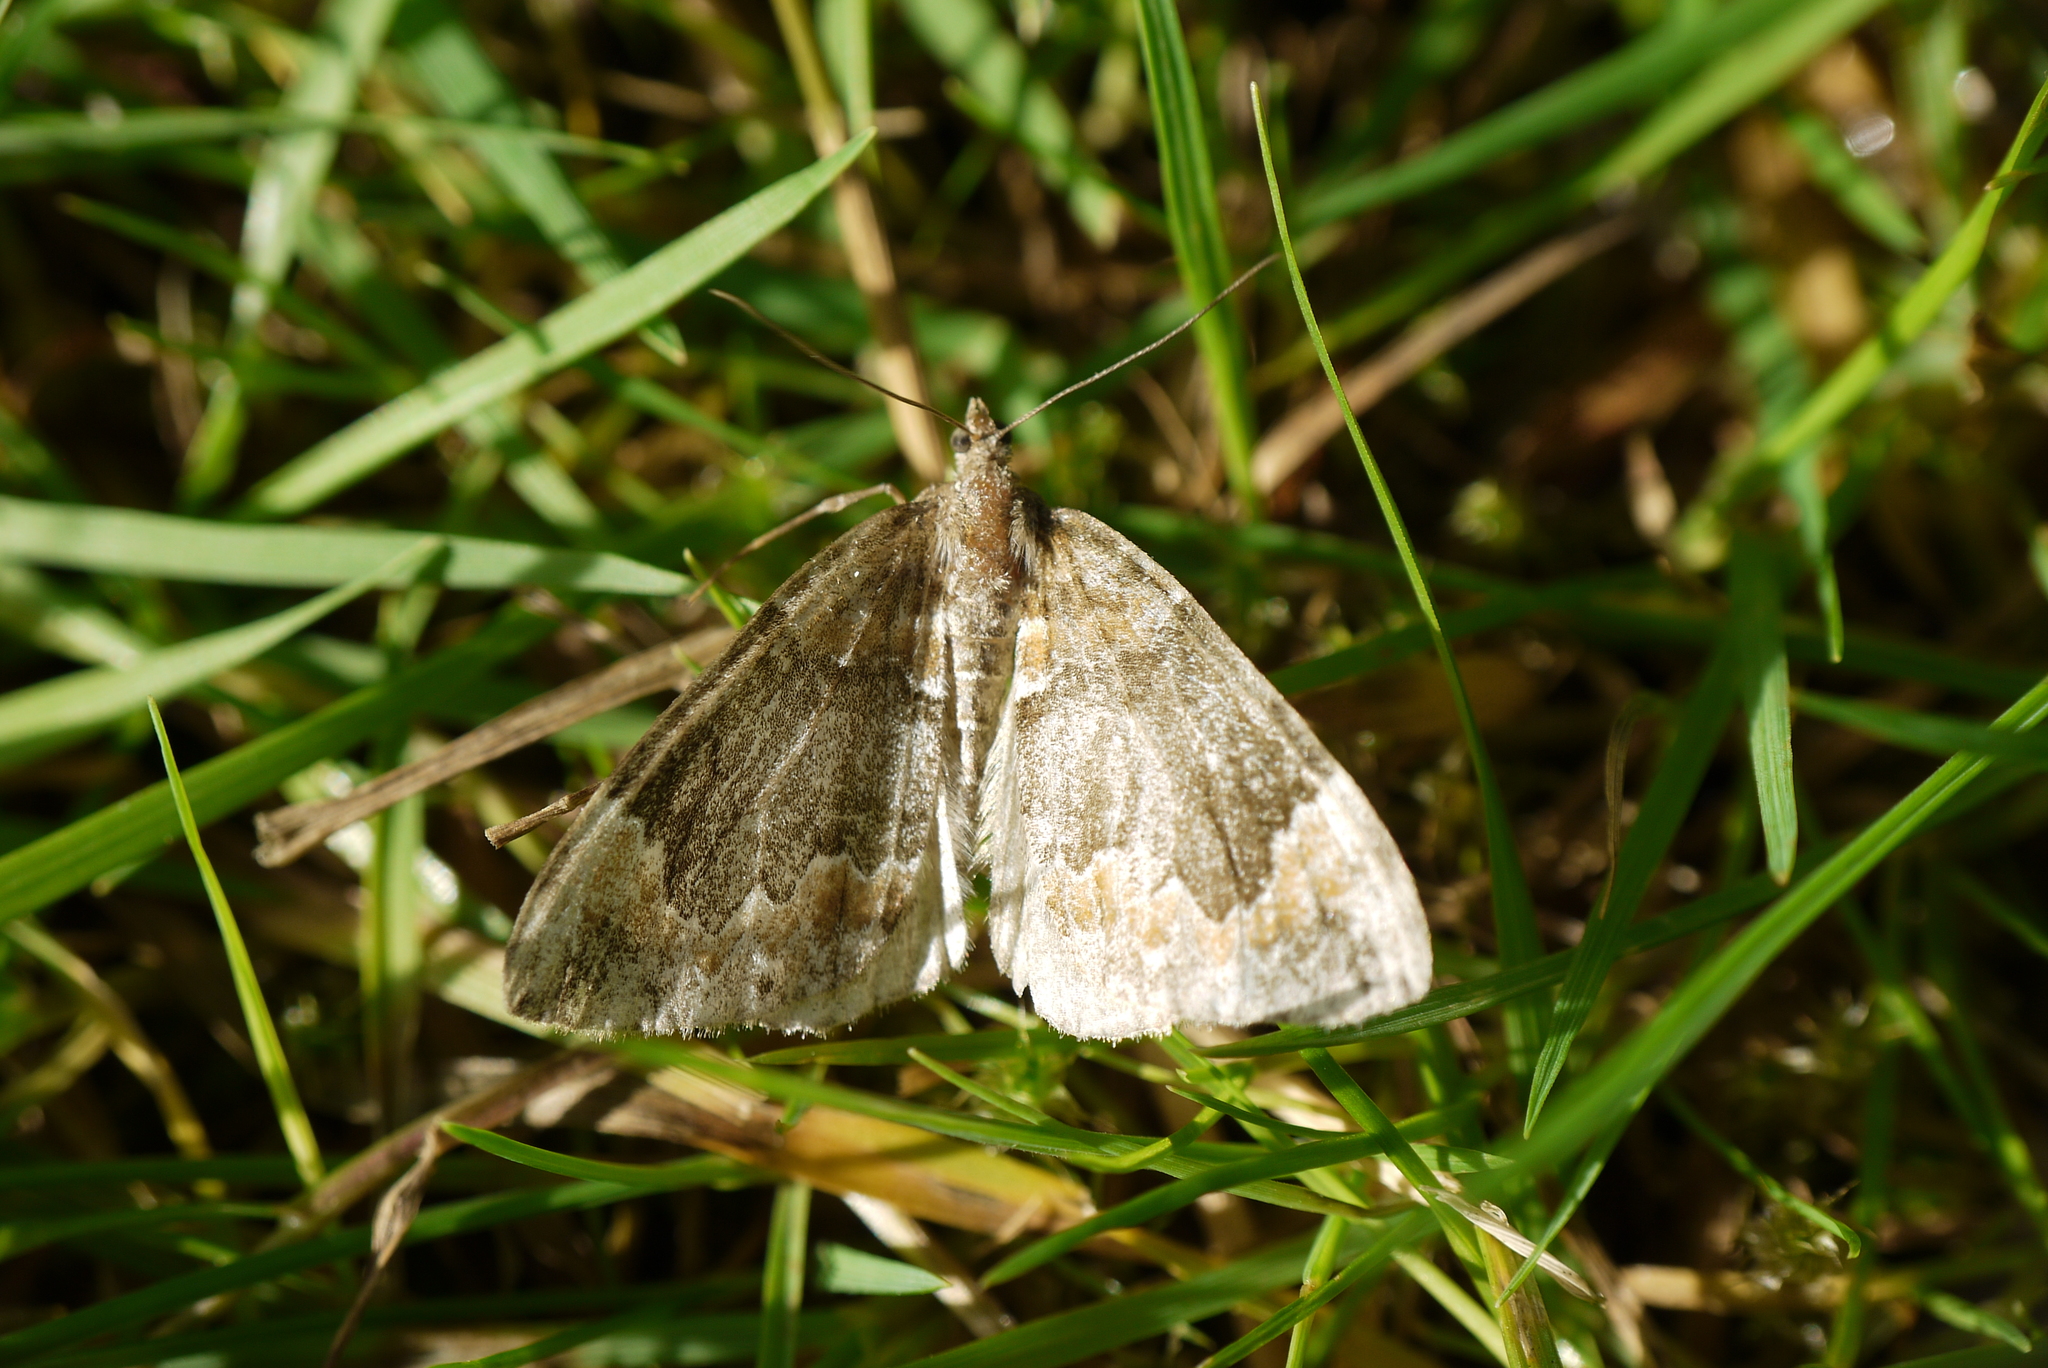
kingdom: Animalia
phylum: Arthropoda
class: Insecta
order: Lepidoptera
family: Geometridae
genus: Dysstroma
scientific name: Dysstroma truncata
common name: Common marbled carpet
